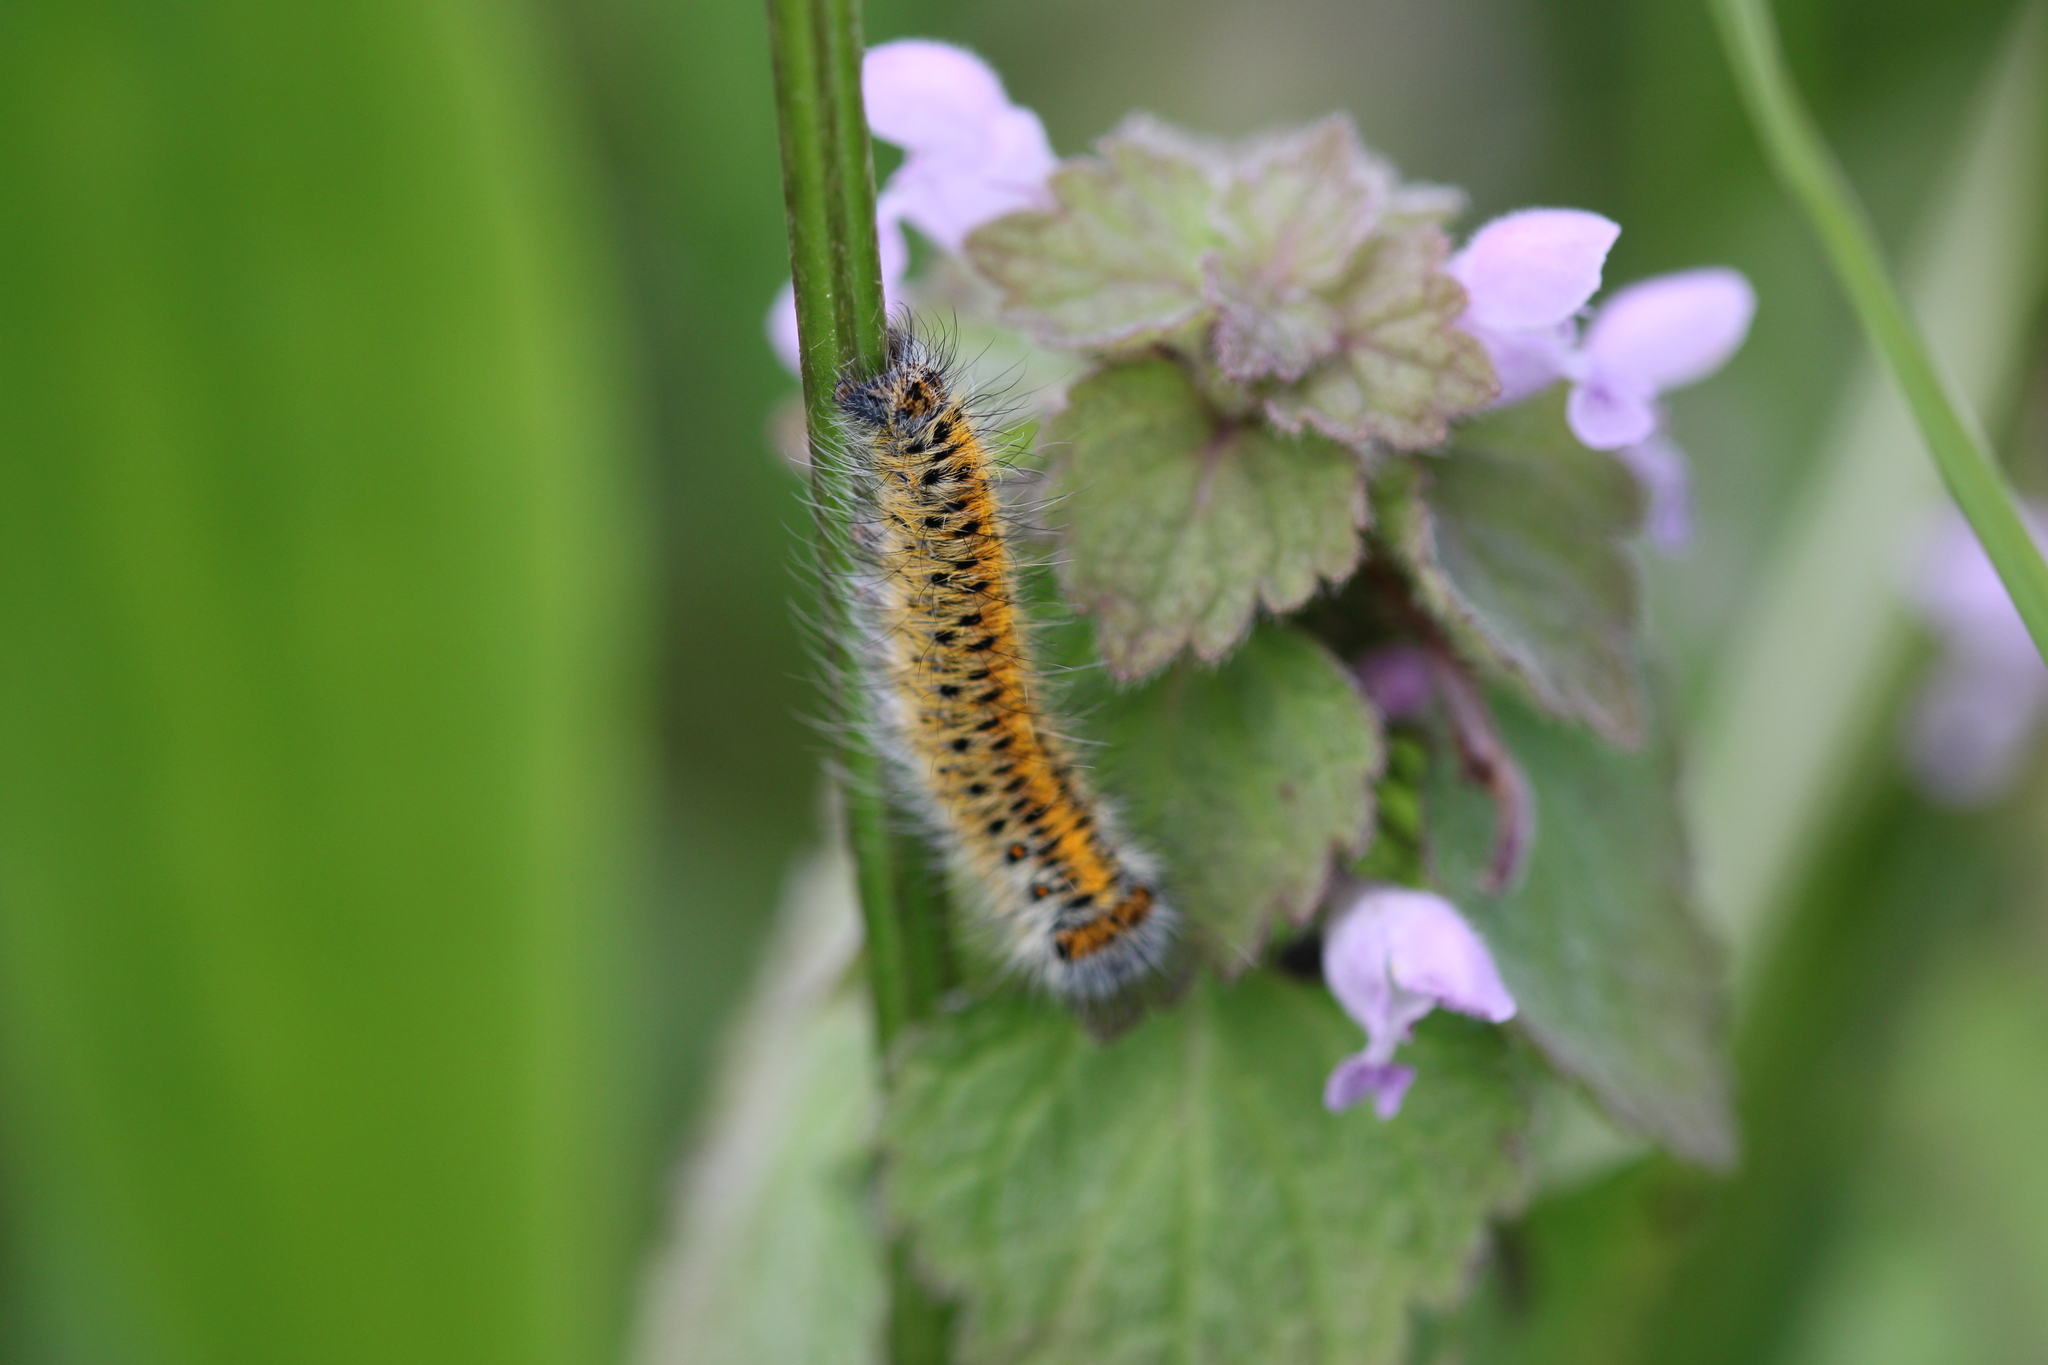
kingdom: Animalia
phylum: Arthropoda
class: Insecta
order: Lepidoptera
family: Lasiocampidae
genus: Lasiocampa
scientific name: Lasiocampa trifolii
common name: Grass eggar
